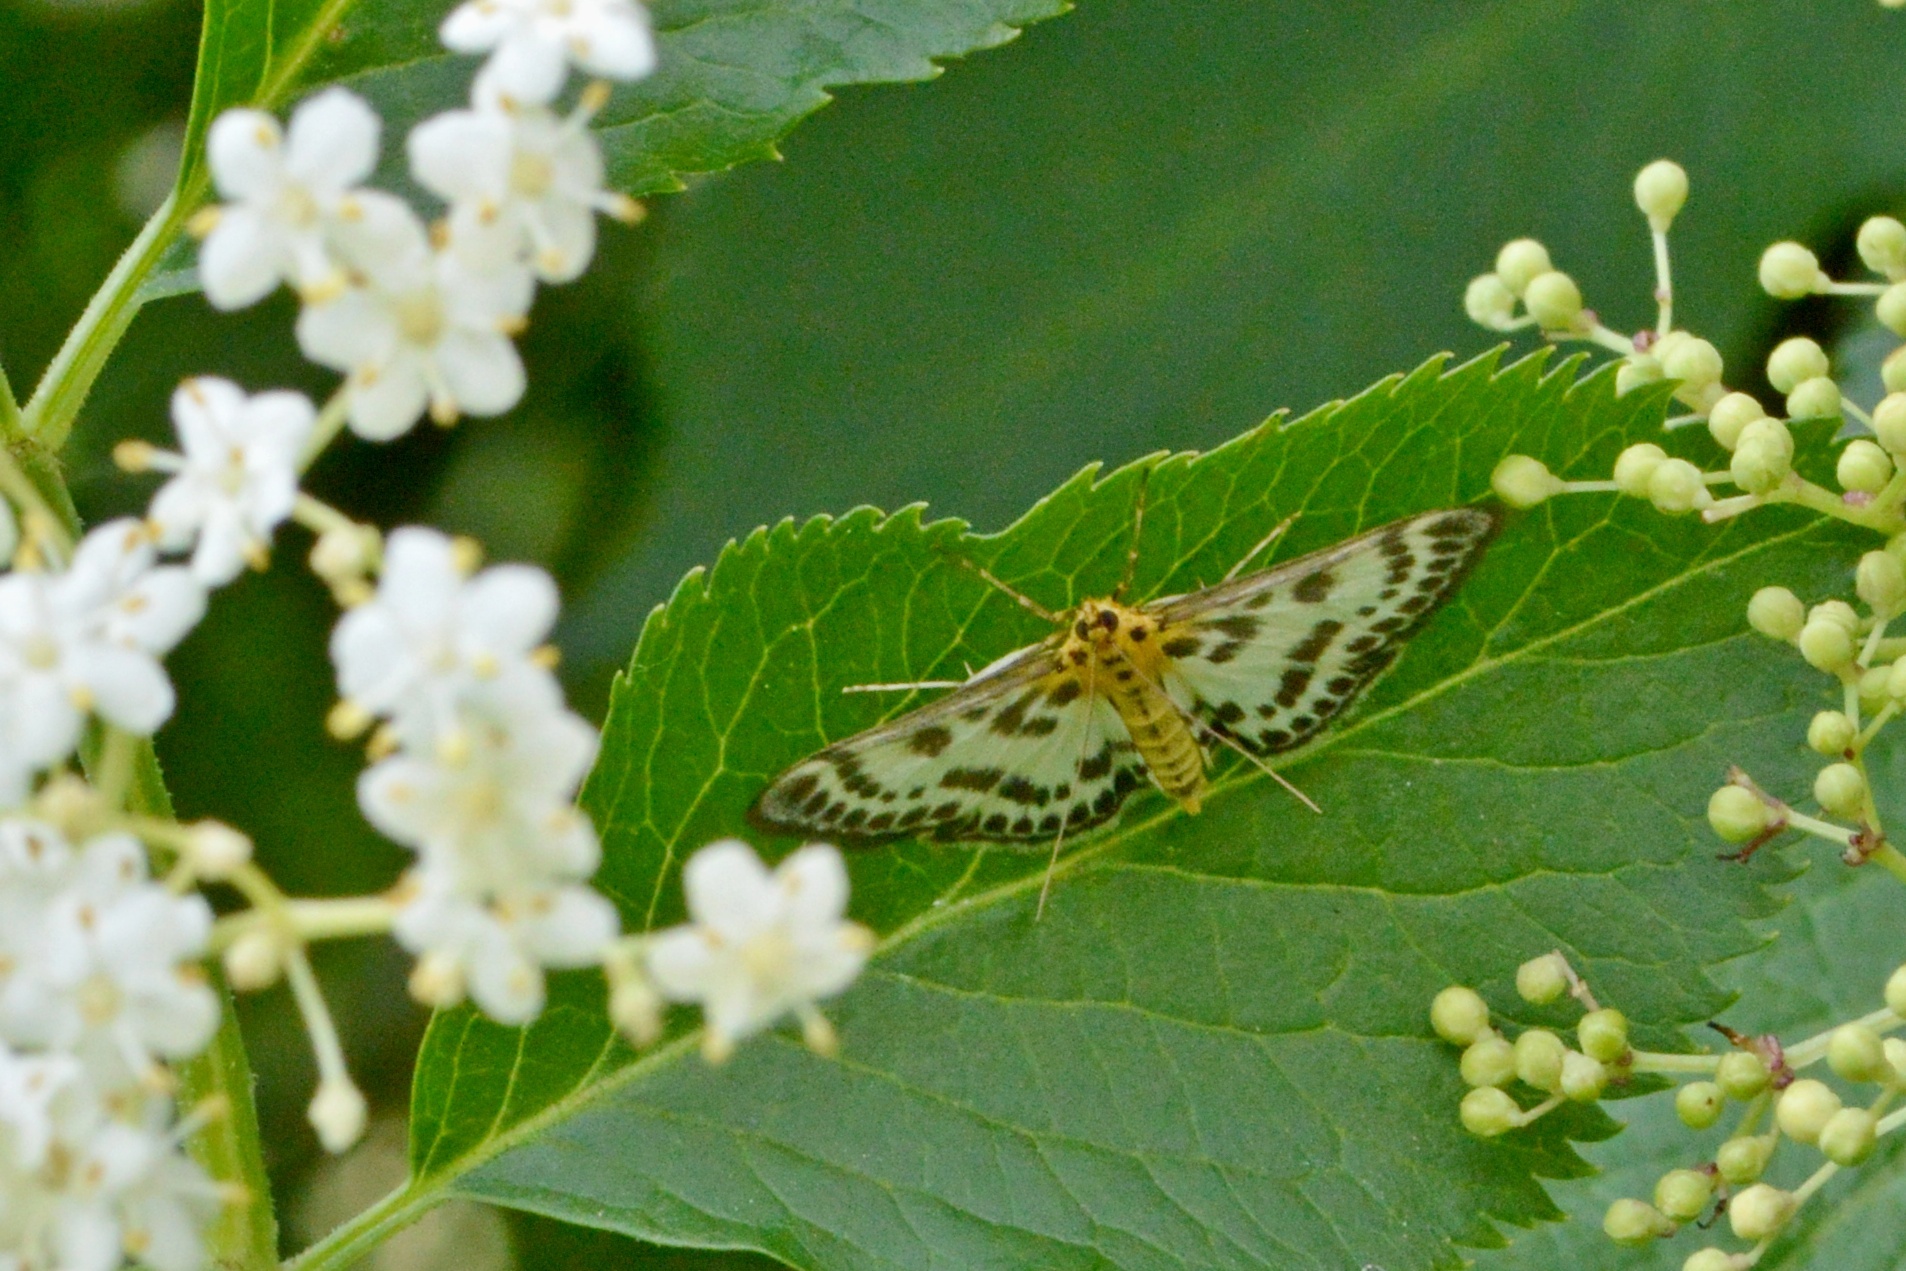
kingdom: Animalia
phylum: Arthropoda
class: Insecta
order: Lepidoptera
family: Crambidae
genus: Anania
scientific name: Anania hortulata
